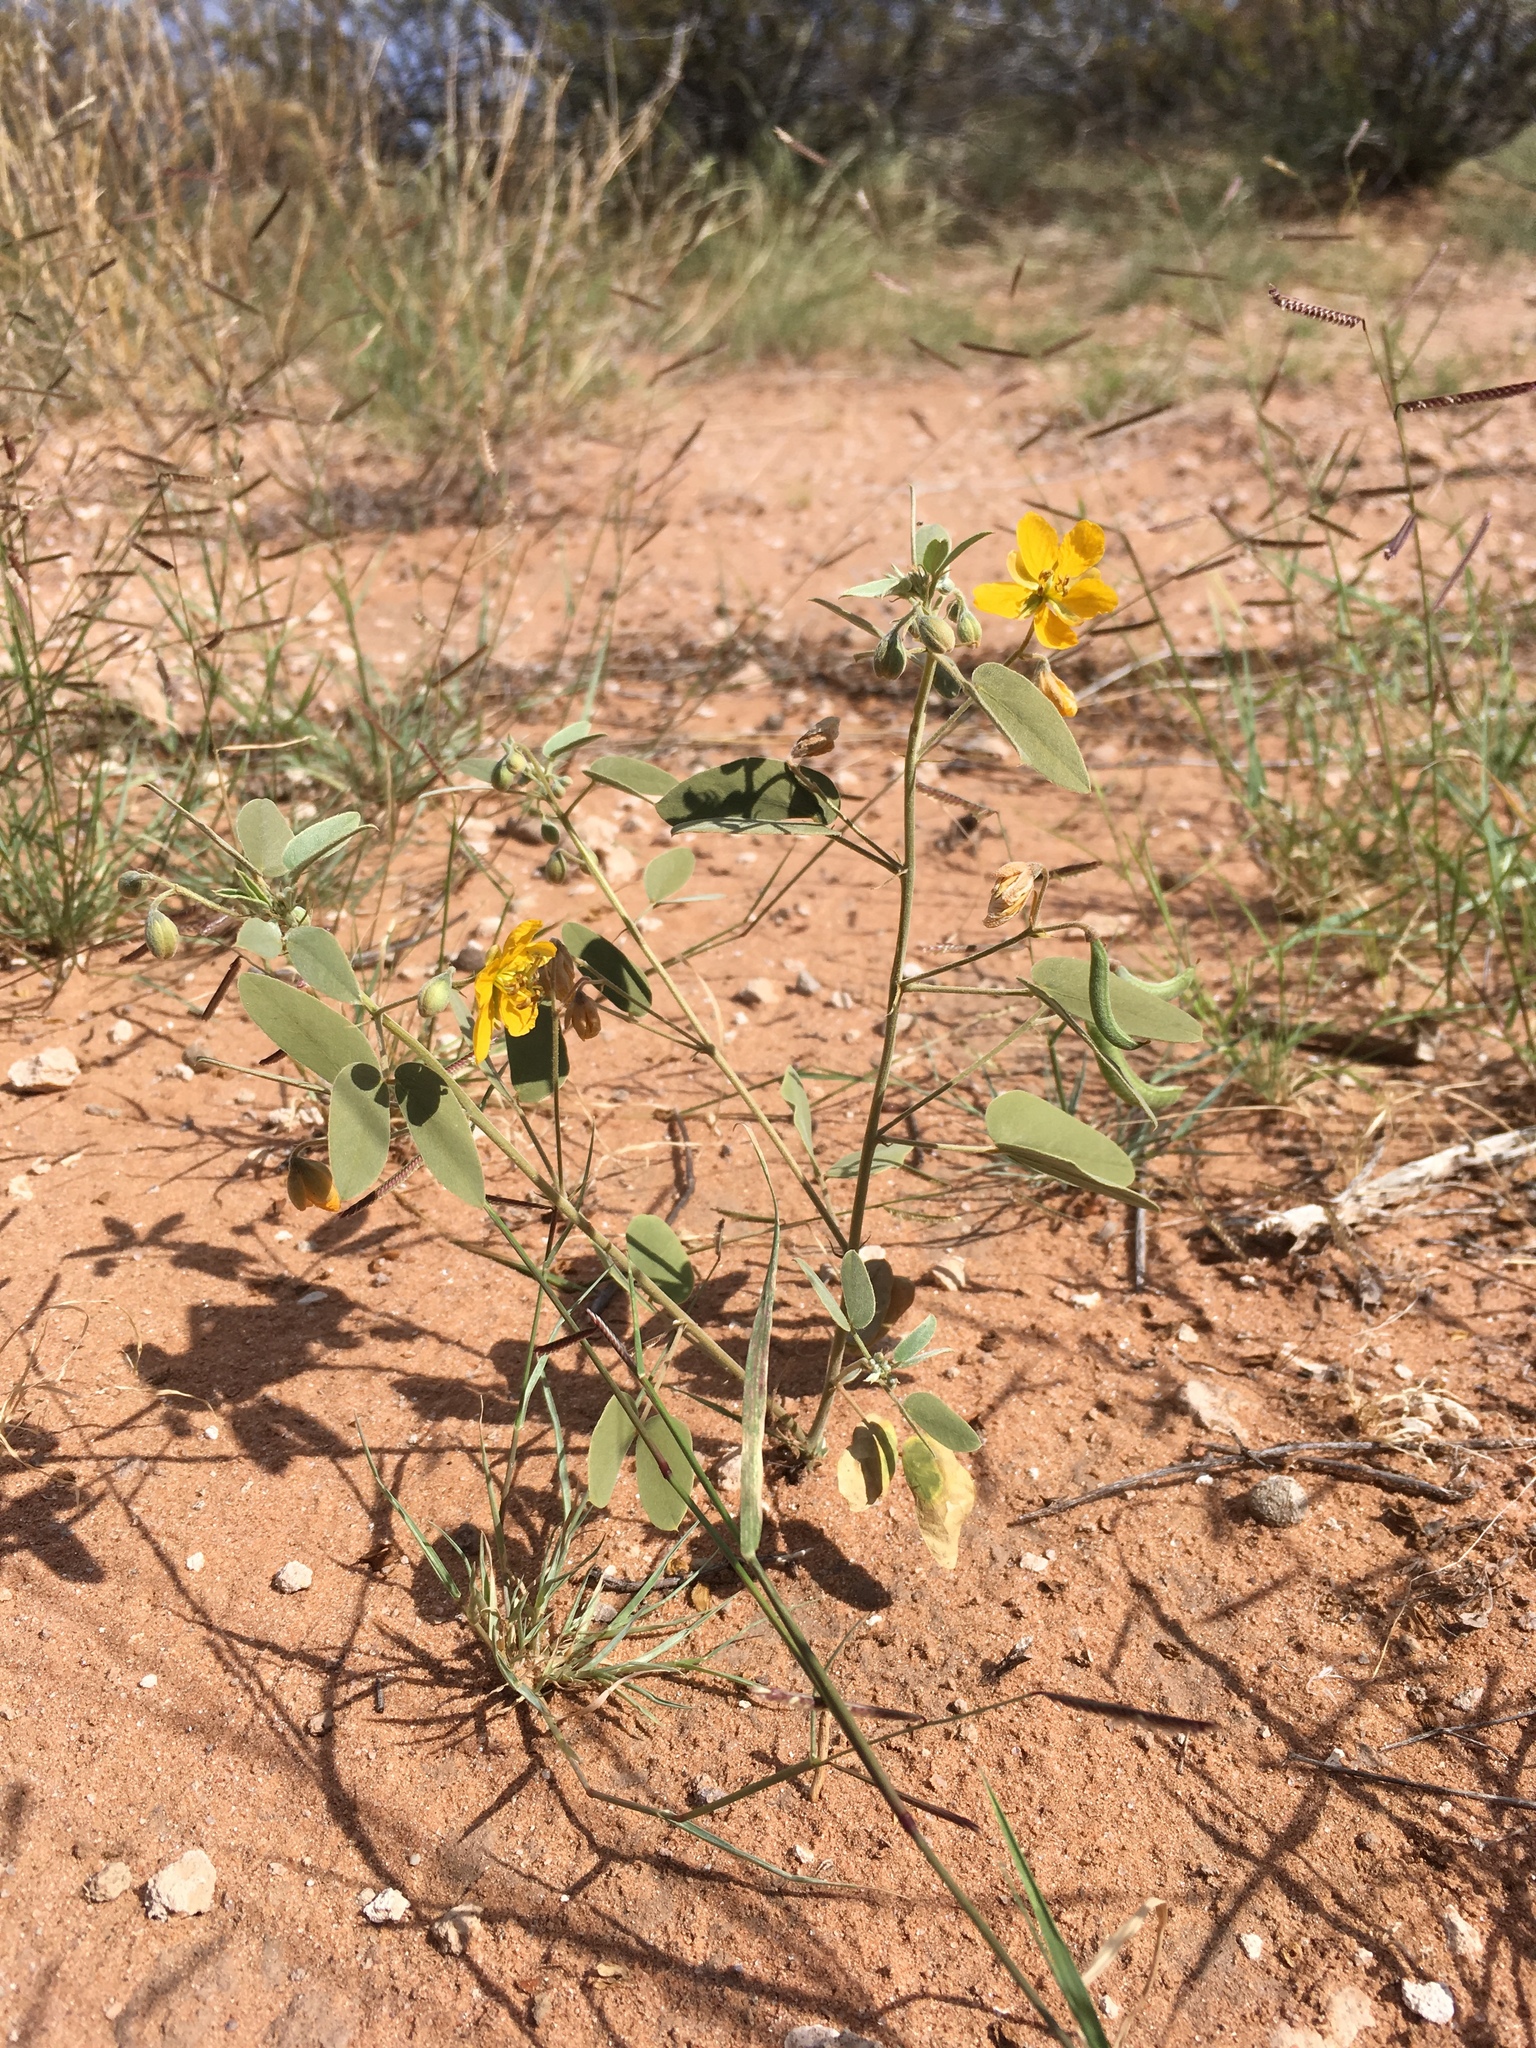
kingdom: Plantae
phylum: Tracheophyta
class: Magnoliopsida
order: Fabales
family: Fabaceae
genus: Senna
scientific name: Senna bauhinioides
